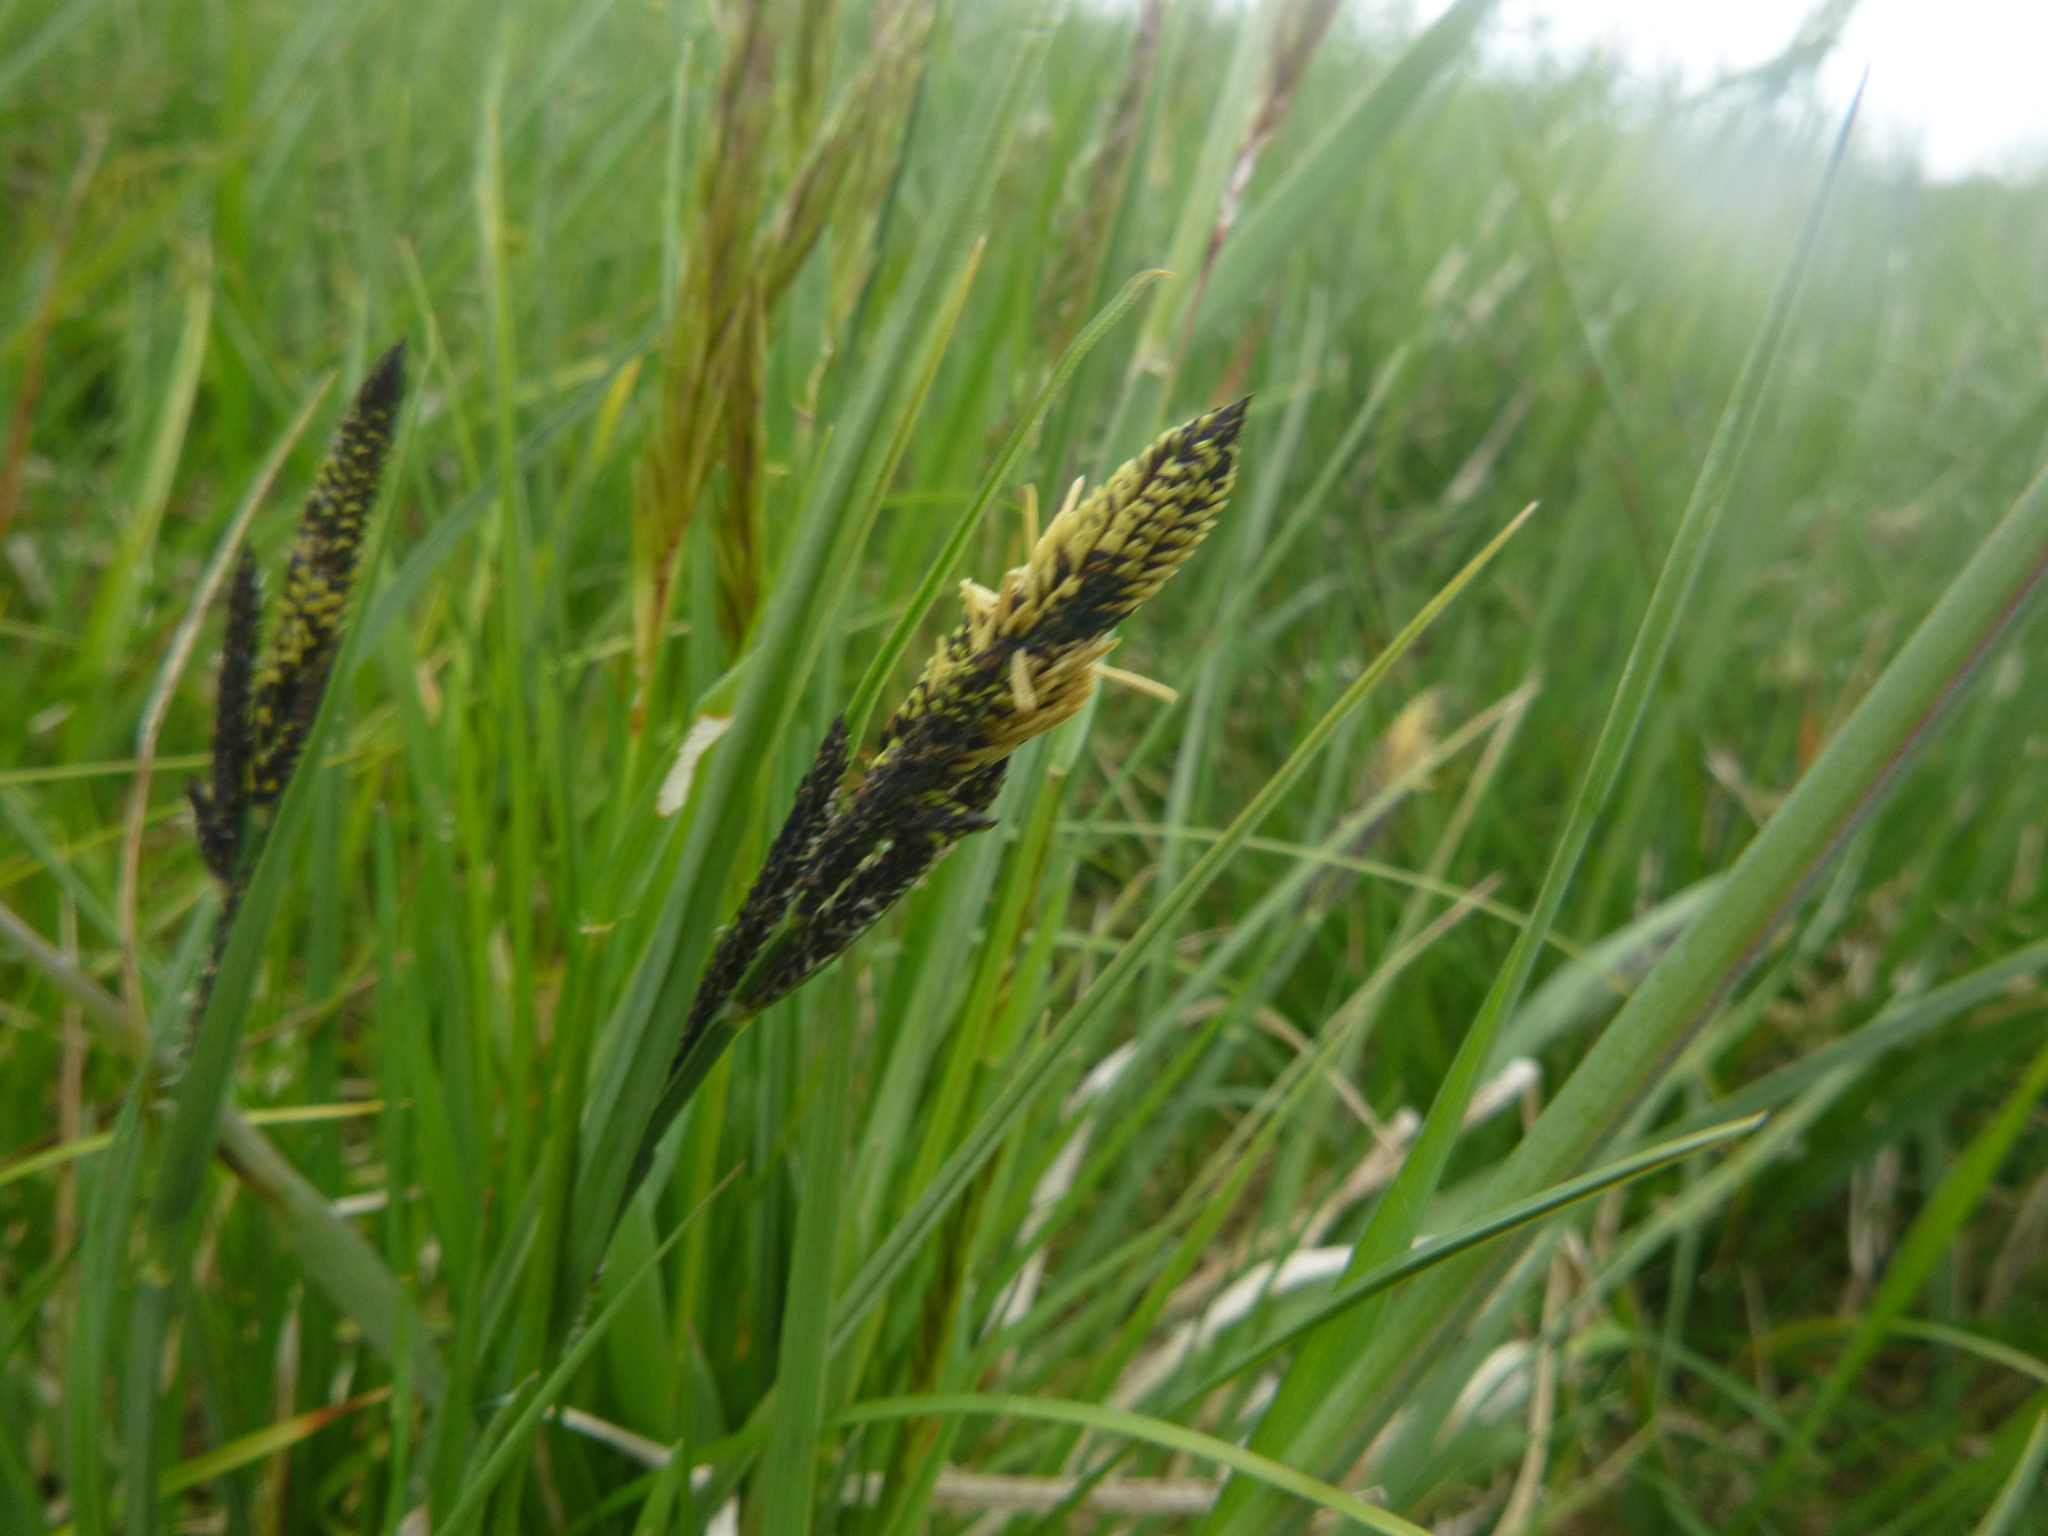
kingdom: Plantae
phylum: Tracheophyta
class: Liliopsida
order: Poales
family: Cyperaceae
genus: Carex
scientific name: Carex nigra
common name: Common sedge
